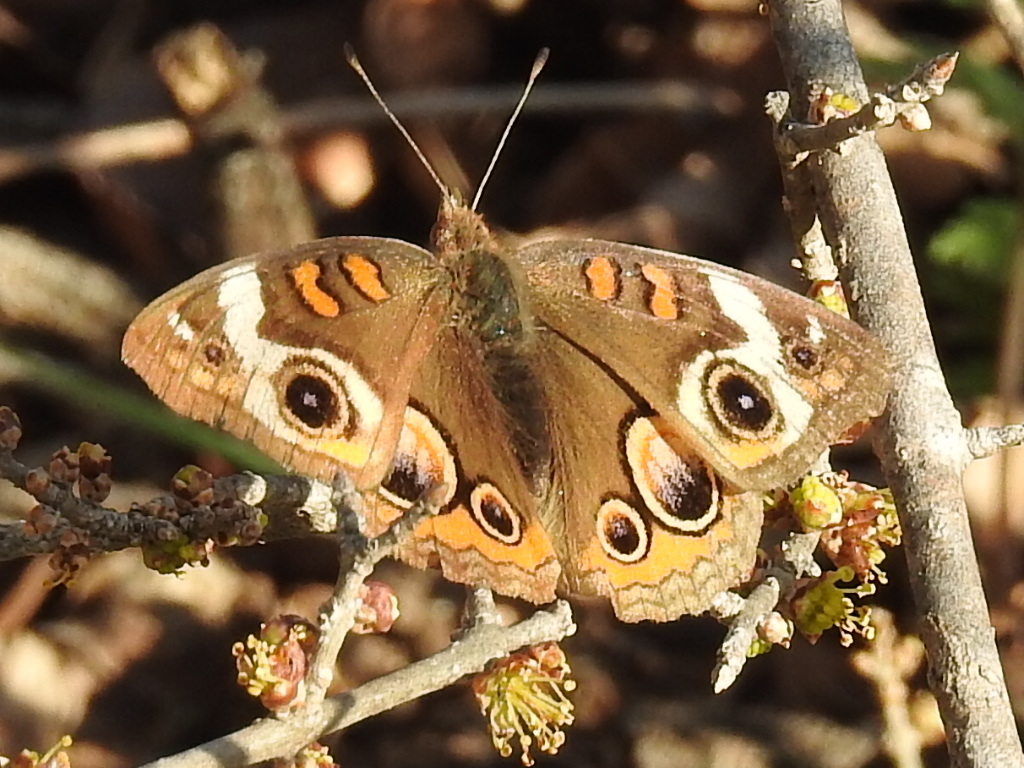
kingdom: Animalia
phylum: Arthropoda
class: Insecta
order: Lepidoptera
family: Nymphalidae
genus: Junonia
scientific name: Junonia coenia
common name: Common buckeye
